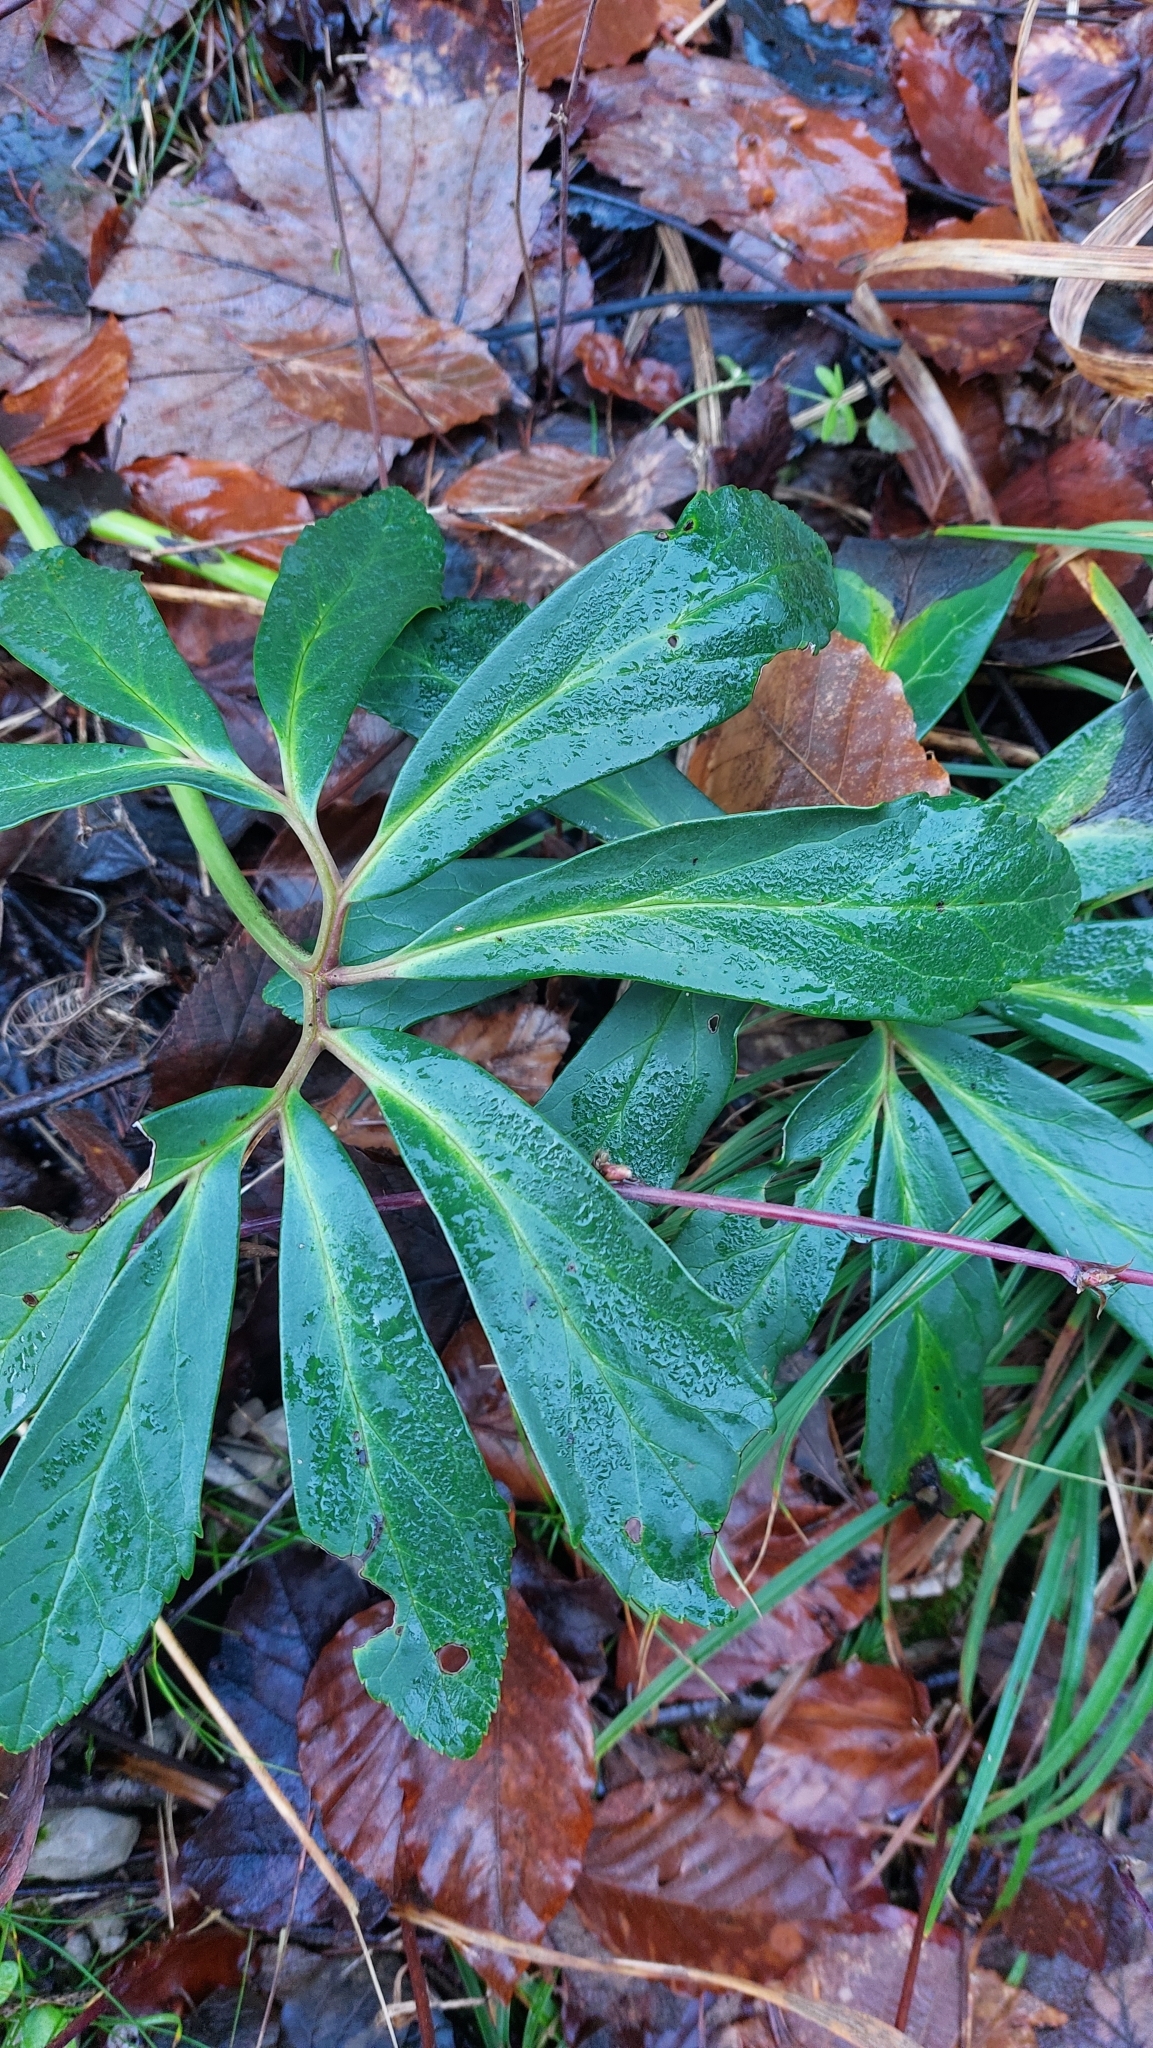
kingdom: Plantae
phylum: Tracheophyta
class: Magnoliopsida
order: Ranunculales
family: Ranunculaceae
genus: Helleborus
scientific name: Helleborus niger
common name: Black hellebore
